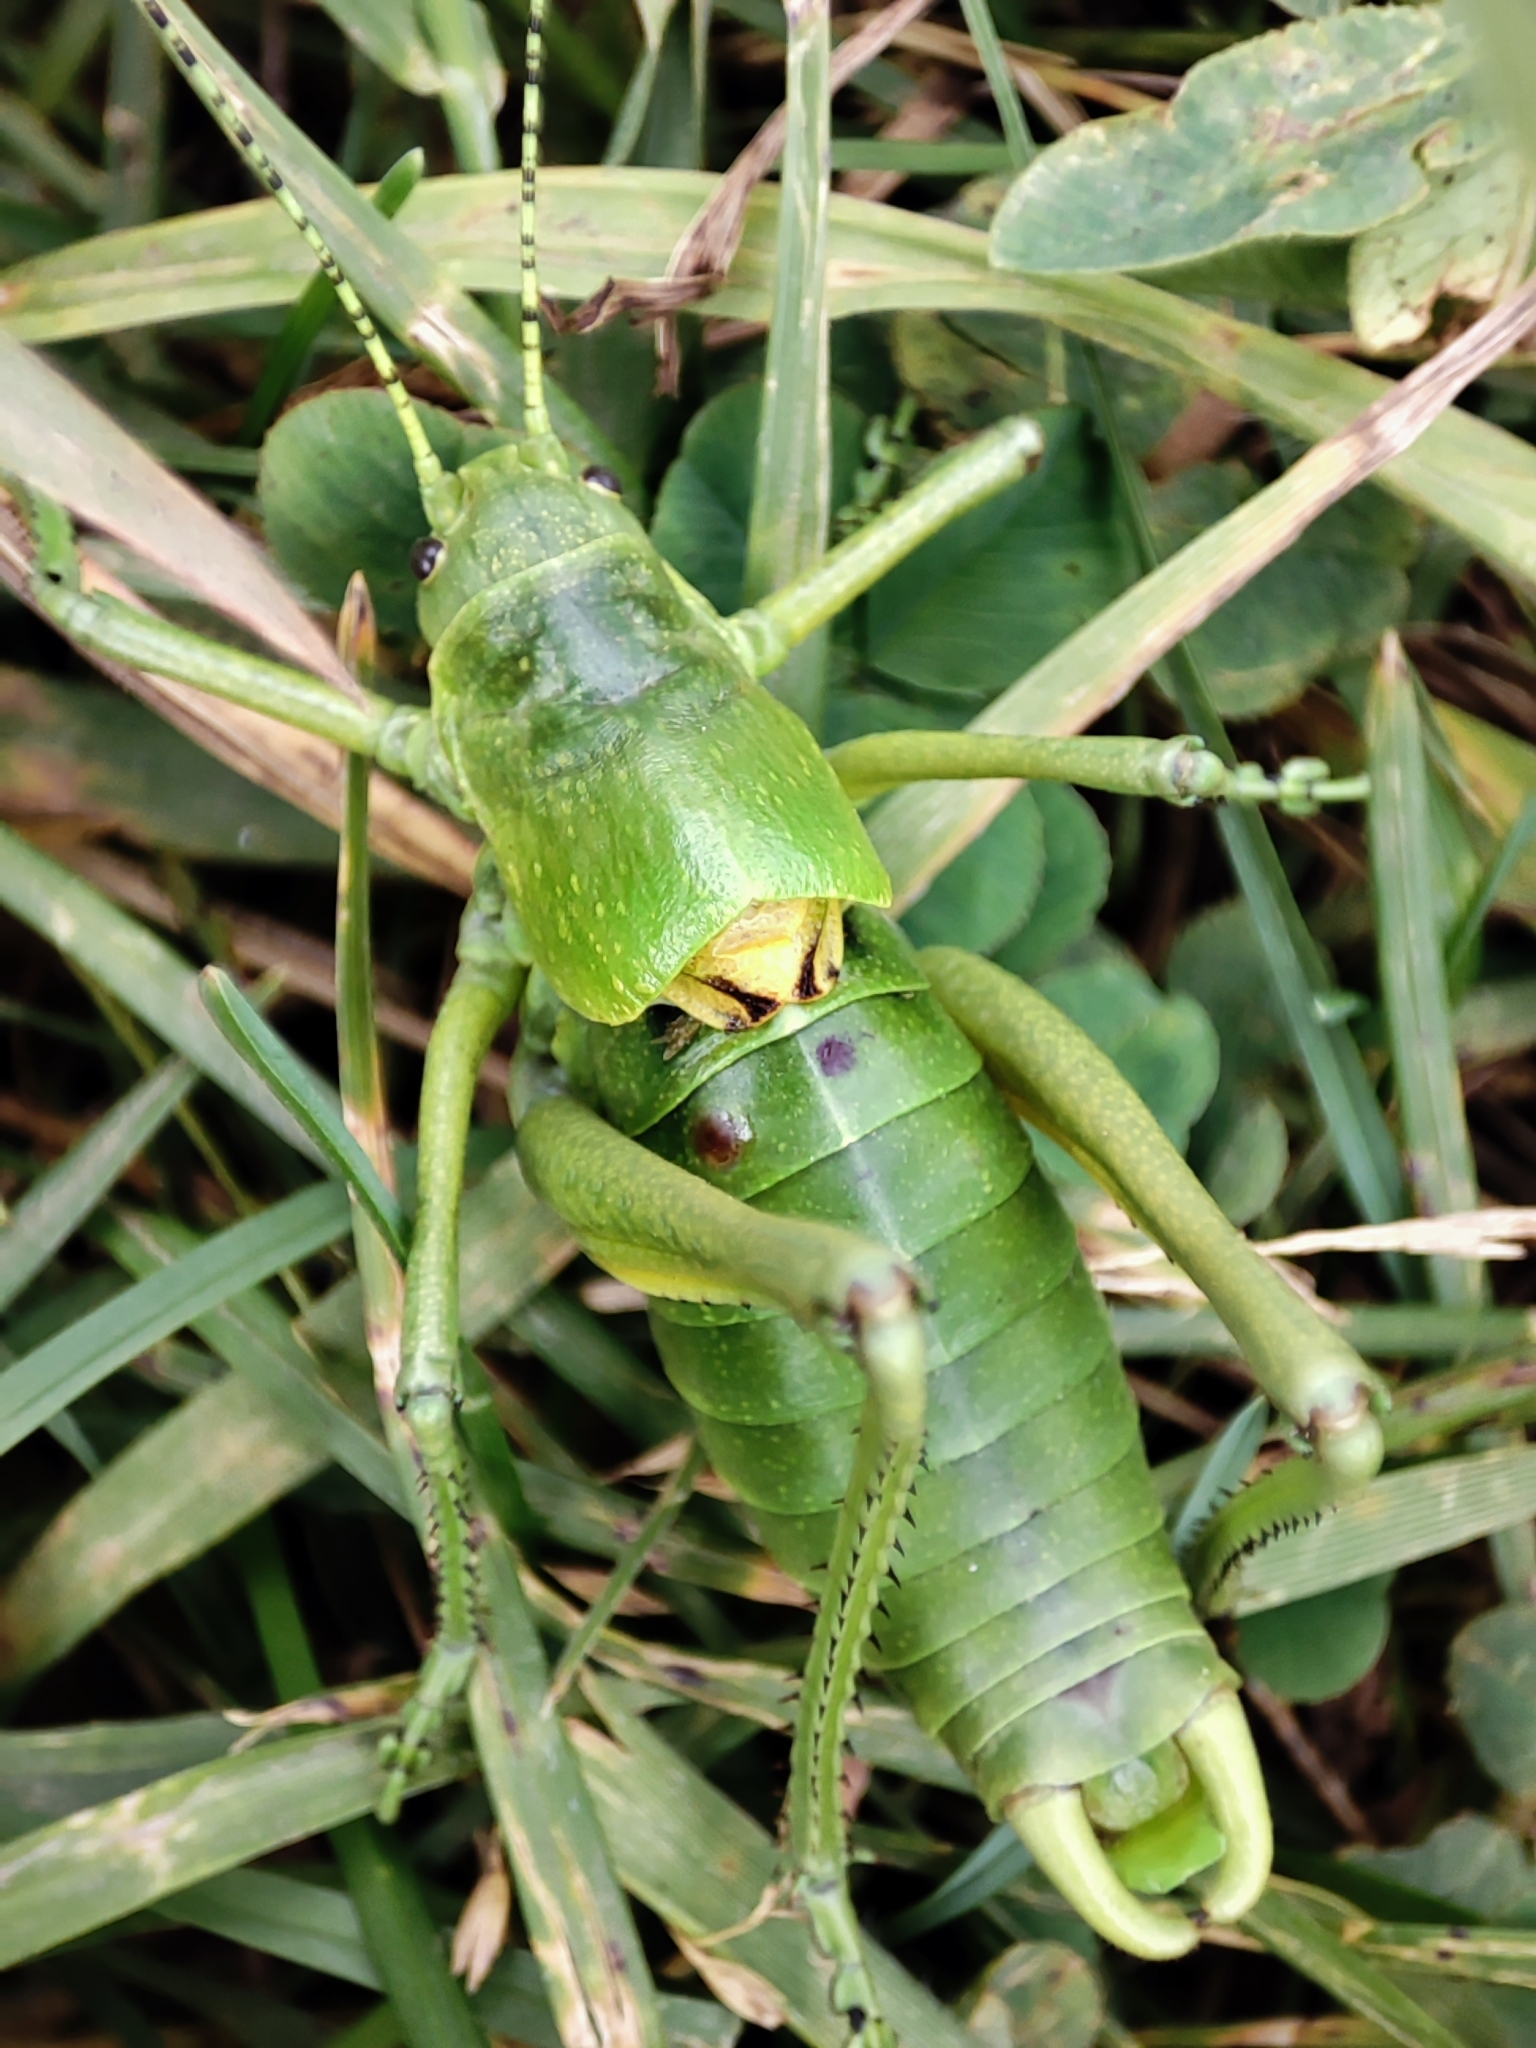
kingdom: Animalia
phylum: Arthropoda
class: Insecta
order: Orthoptera
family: Tettigoniidae
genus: Polysarcus
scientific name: Polysarcus zacharovi
